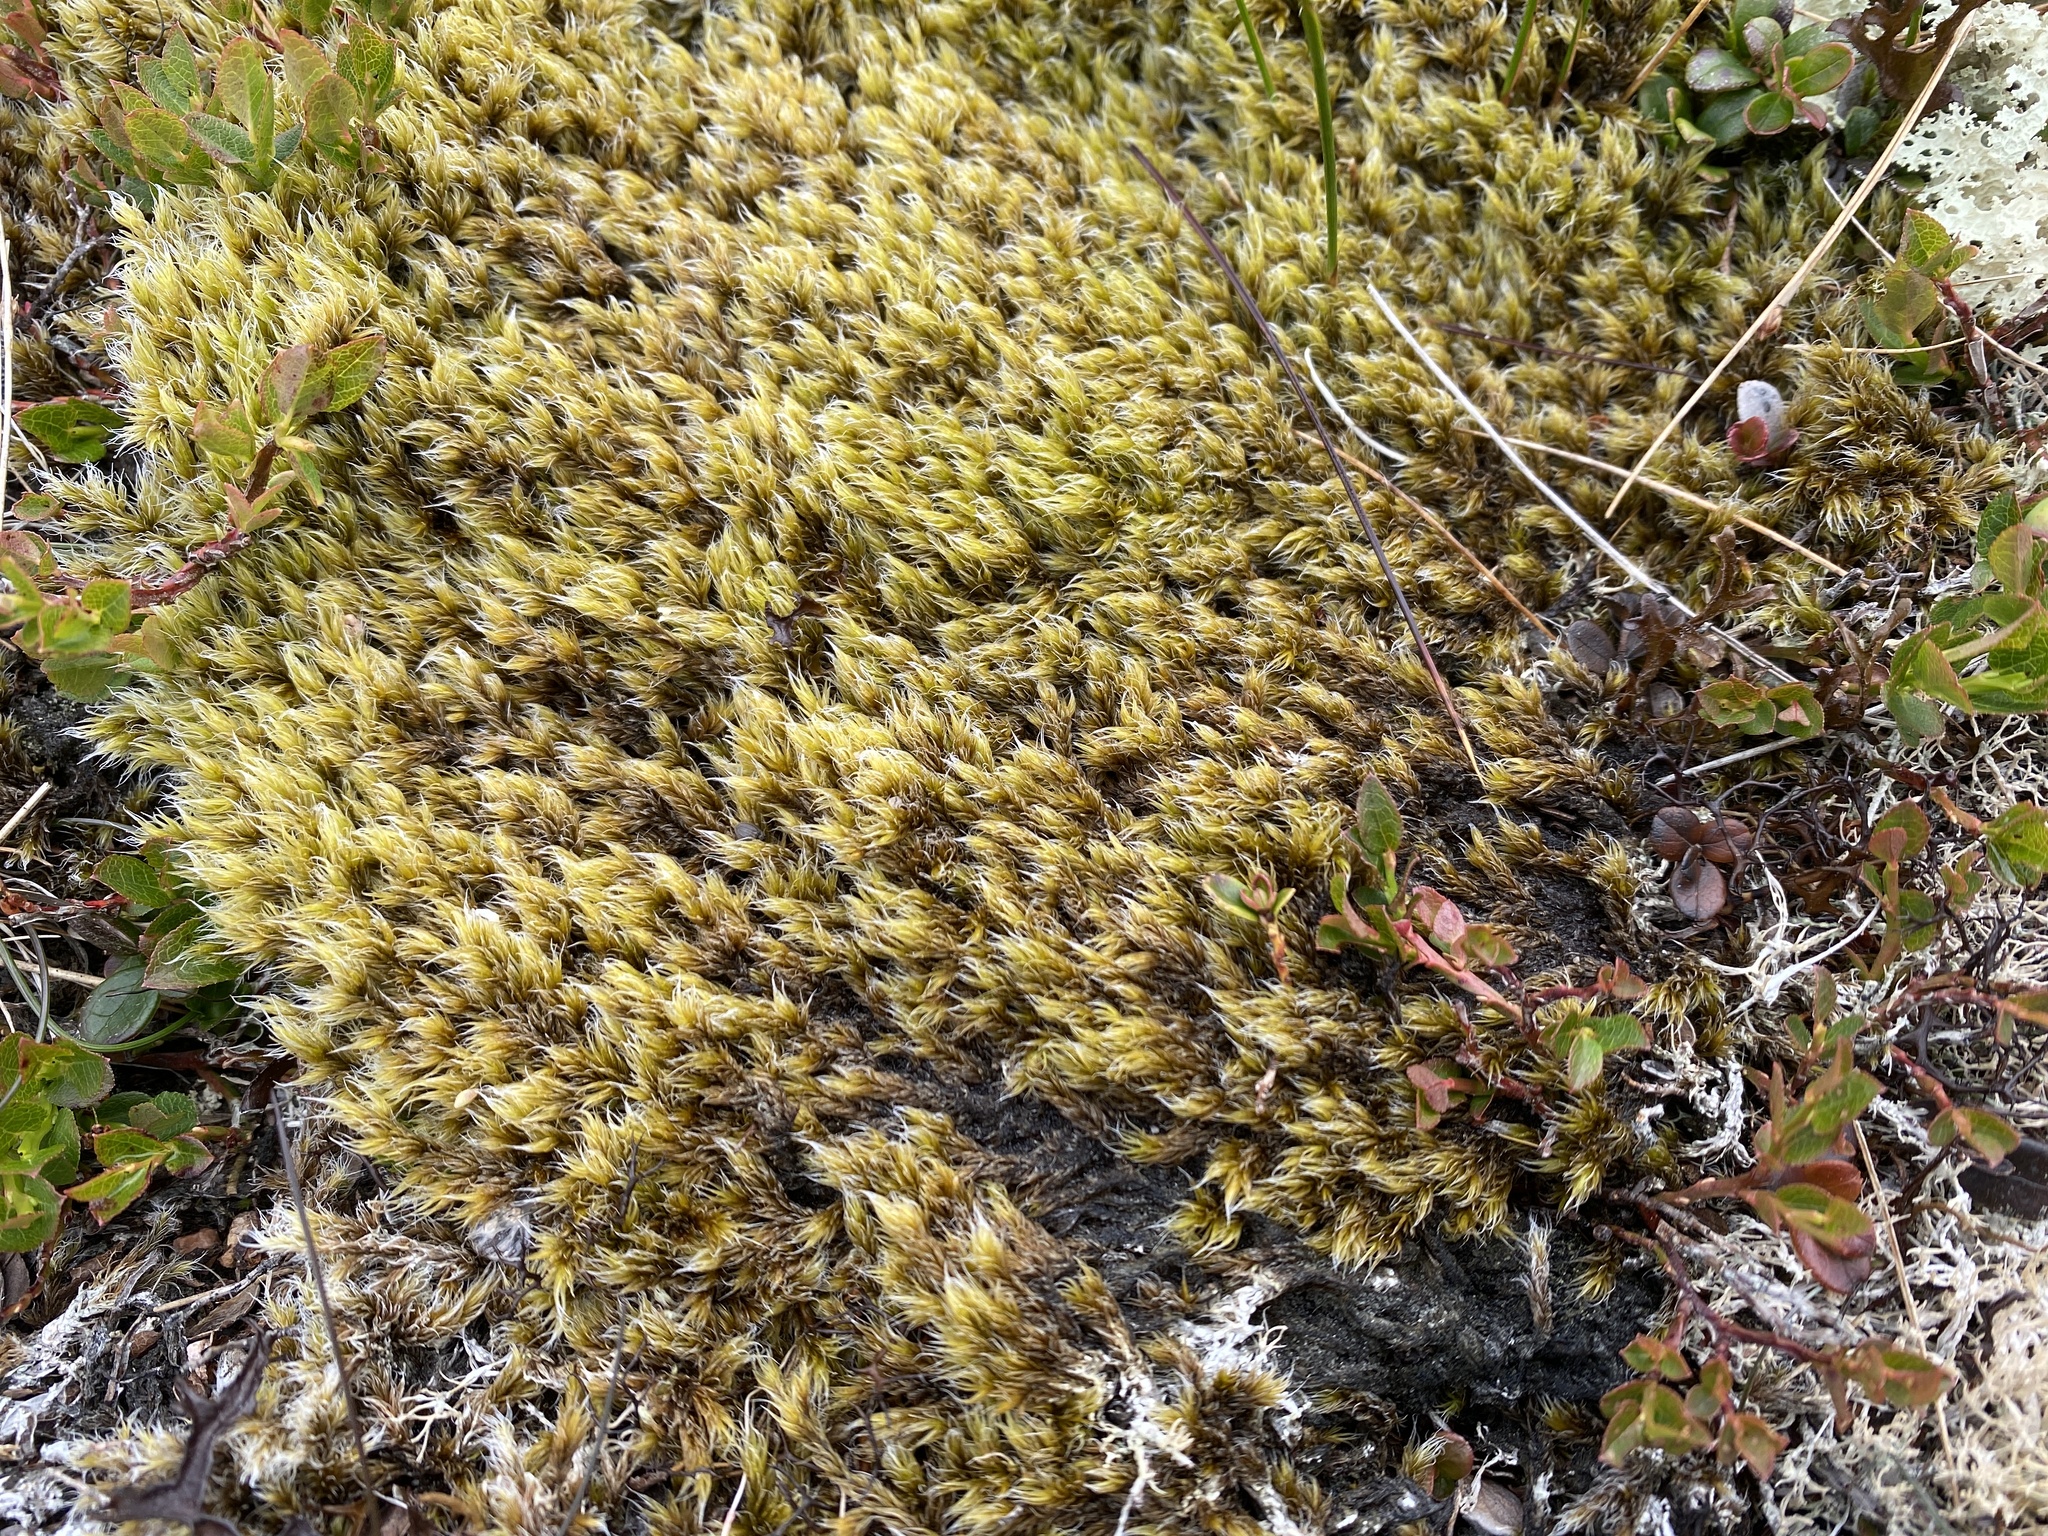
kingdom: Plantae
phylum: Bryophyta
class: Bryopsida
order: Grimmiales
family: Grimmiaceae
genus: Racomitrium
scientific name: Racomitrium lanuginosum
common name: Hoary rock moss
